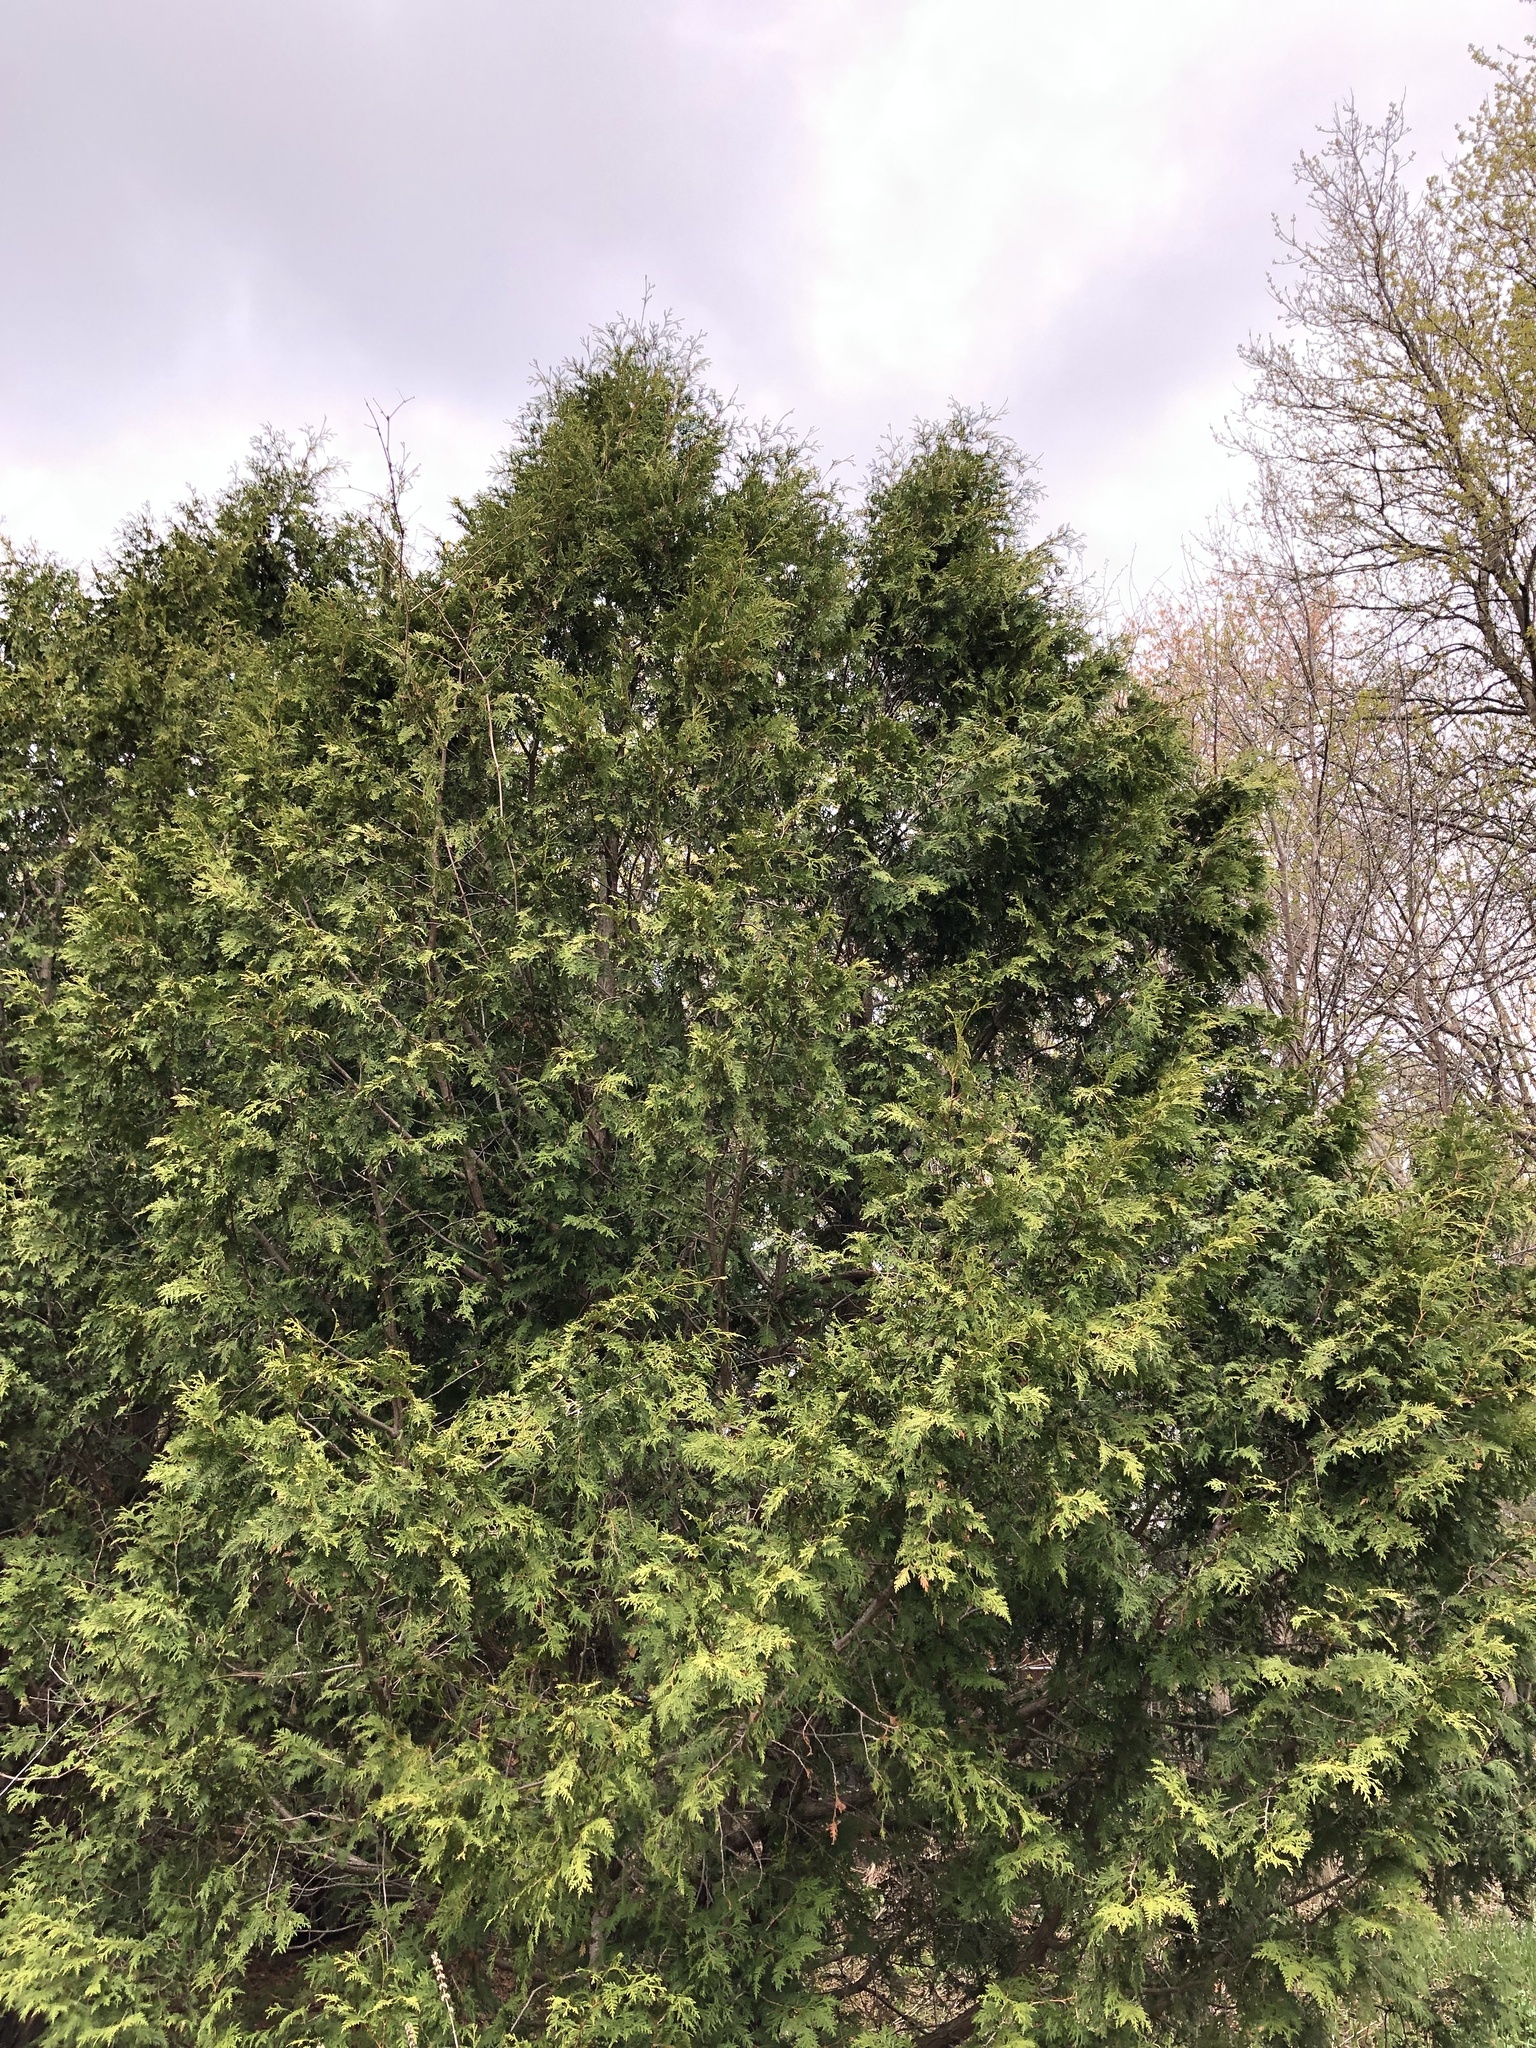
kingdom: Plantae
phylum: Tracheophyta
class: Pinopsida
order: Pinales
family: Cupressaceae
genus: Thuja
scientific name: Thuja occidentalis
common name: Northern white-cedar
